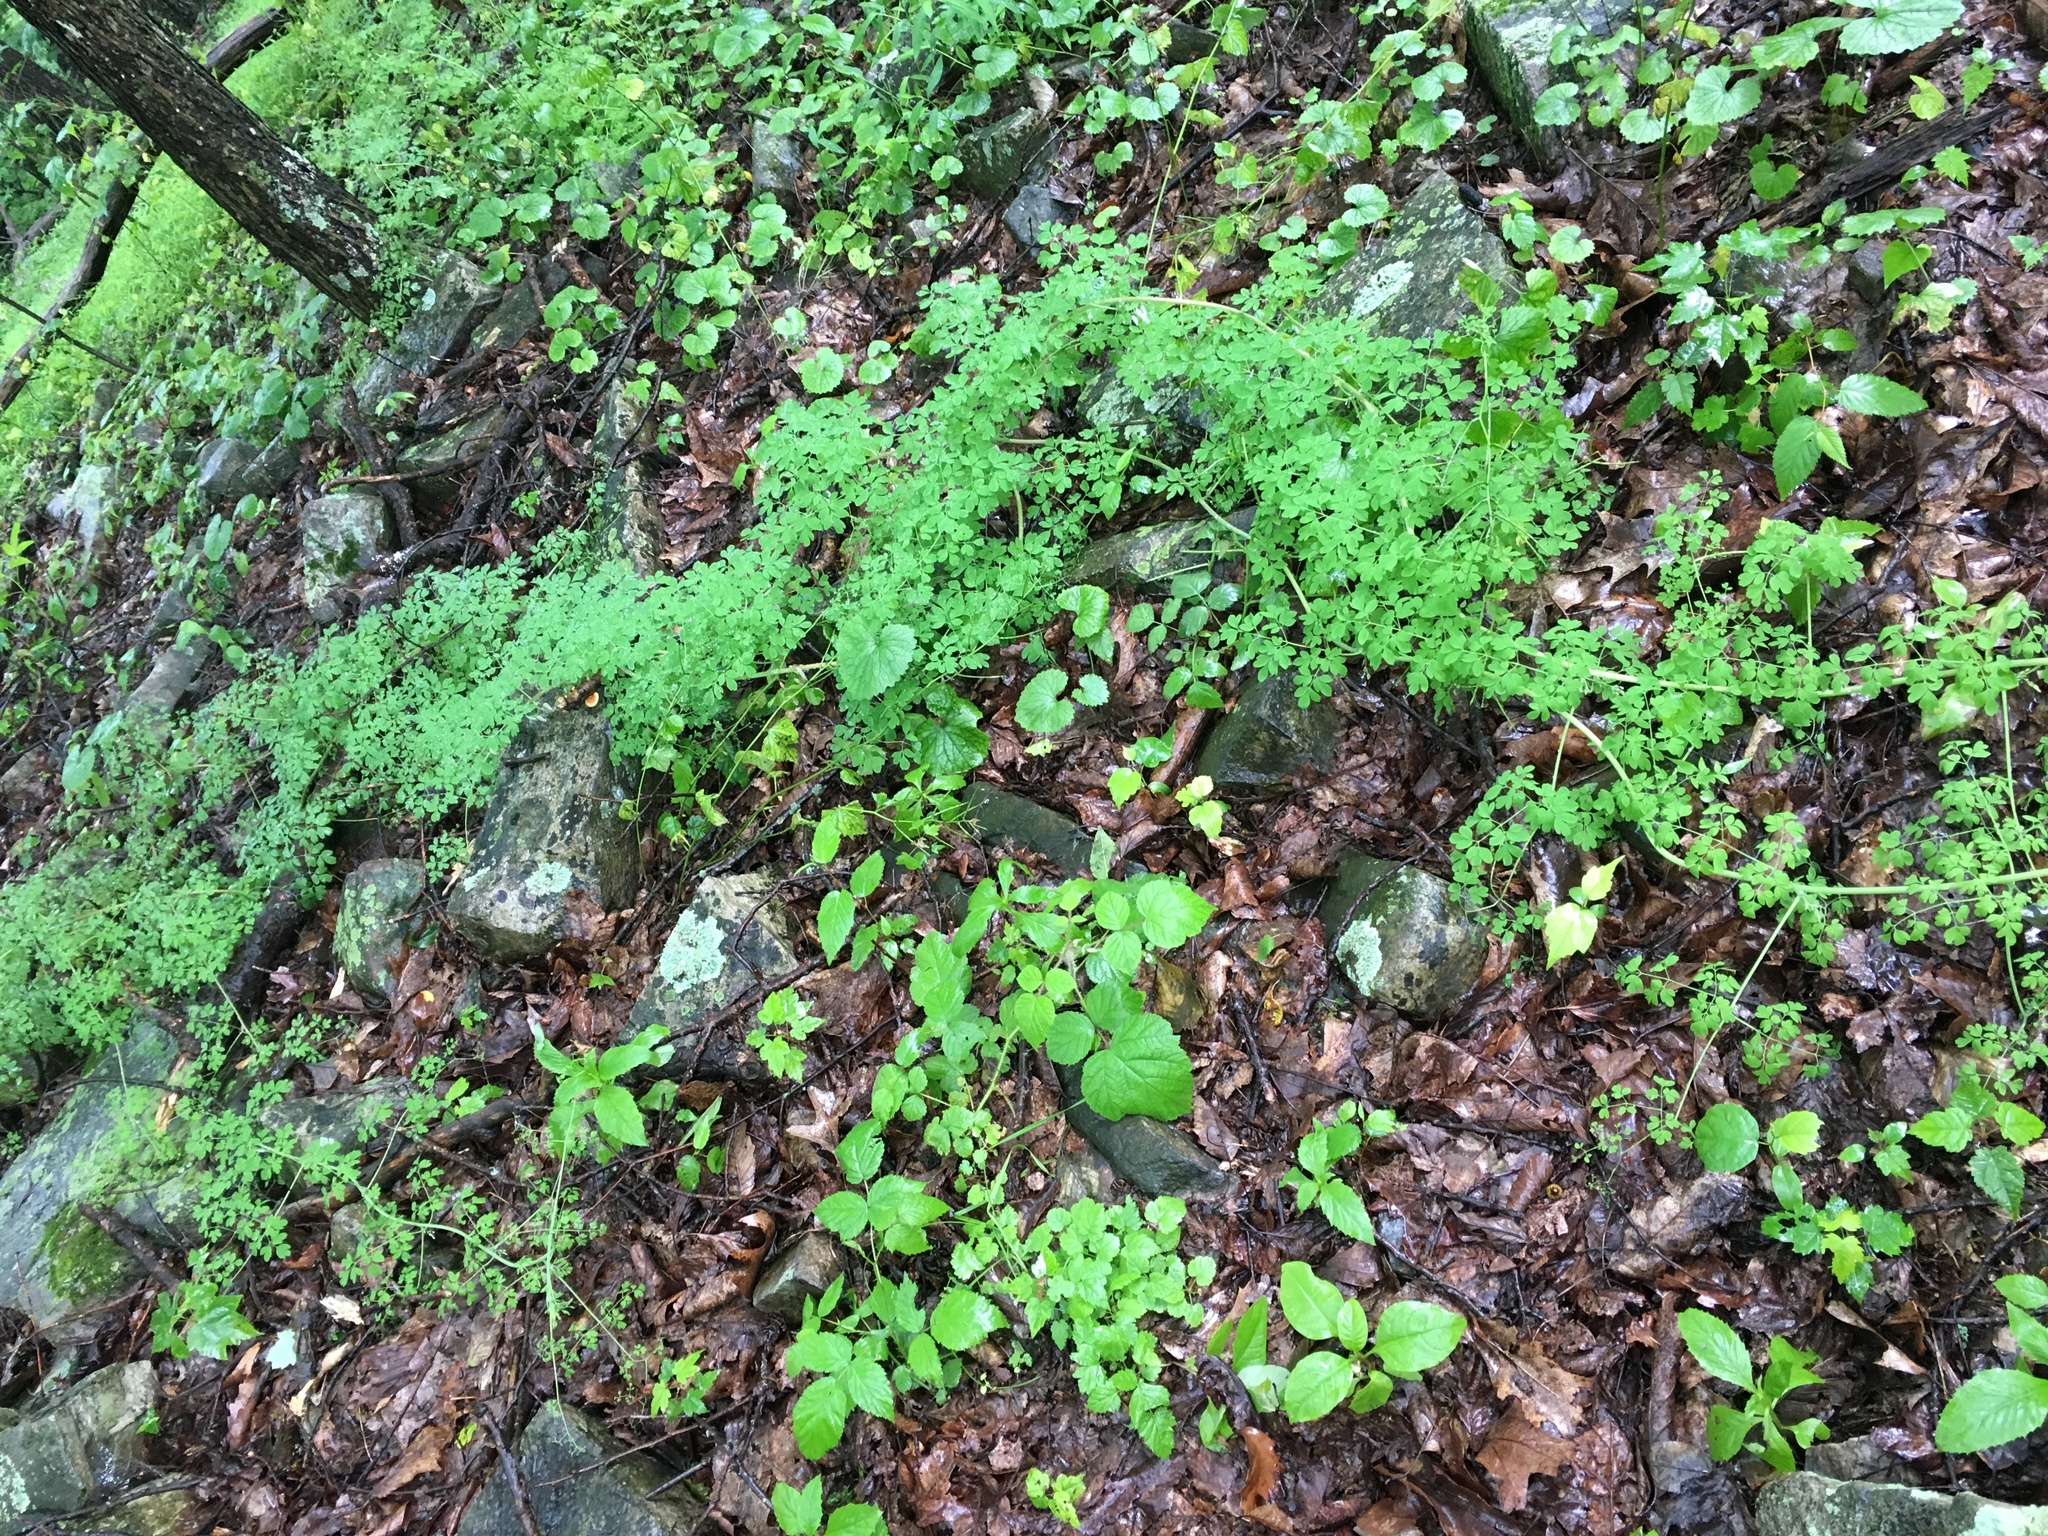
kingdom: Plantae
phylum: Tracheophyta
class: Magnoliopsida
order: Ranunculales
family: Papaveraceae
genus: Adlumia
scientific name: Adlumia fungosa
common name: Mountain-fringe
